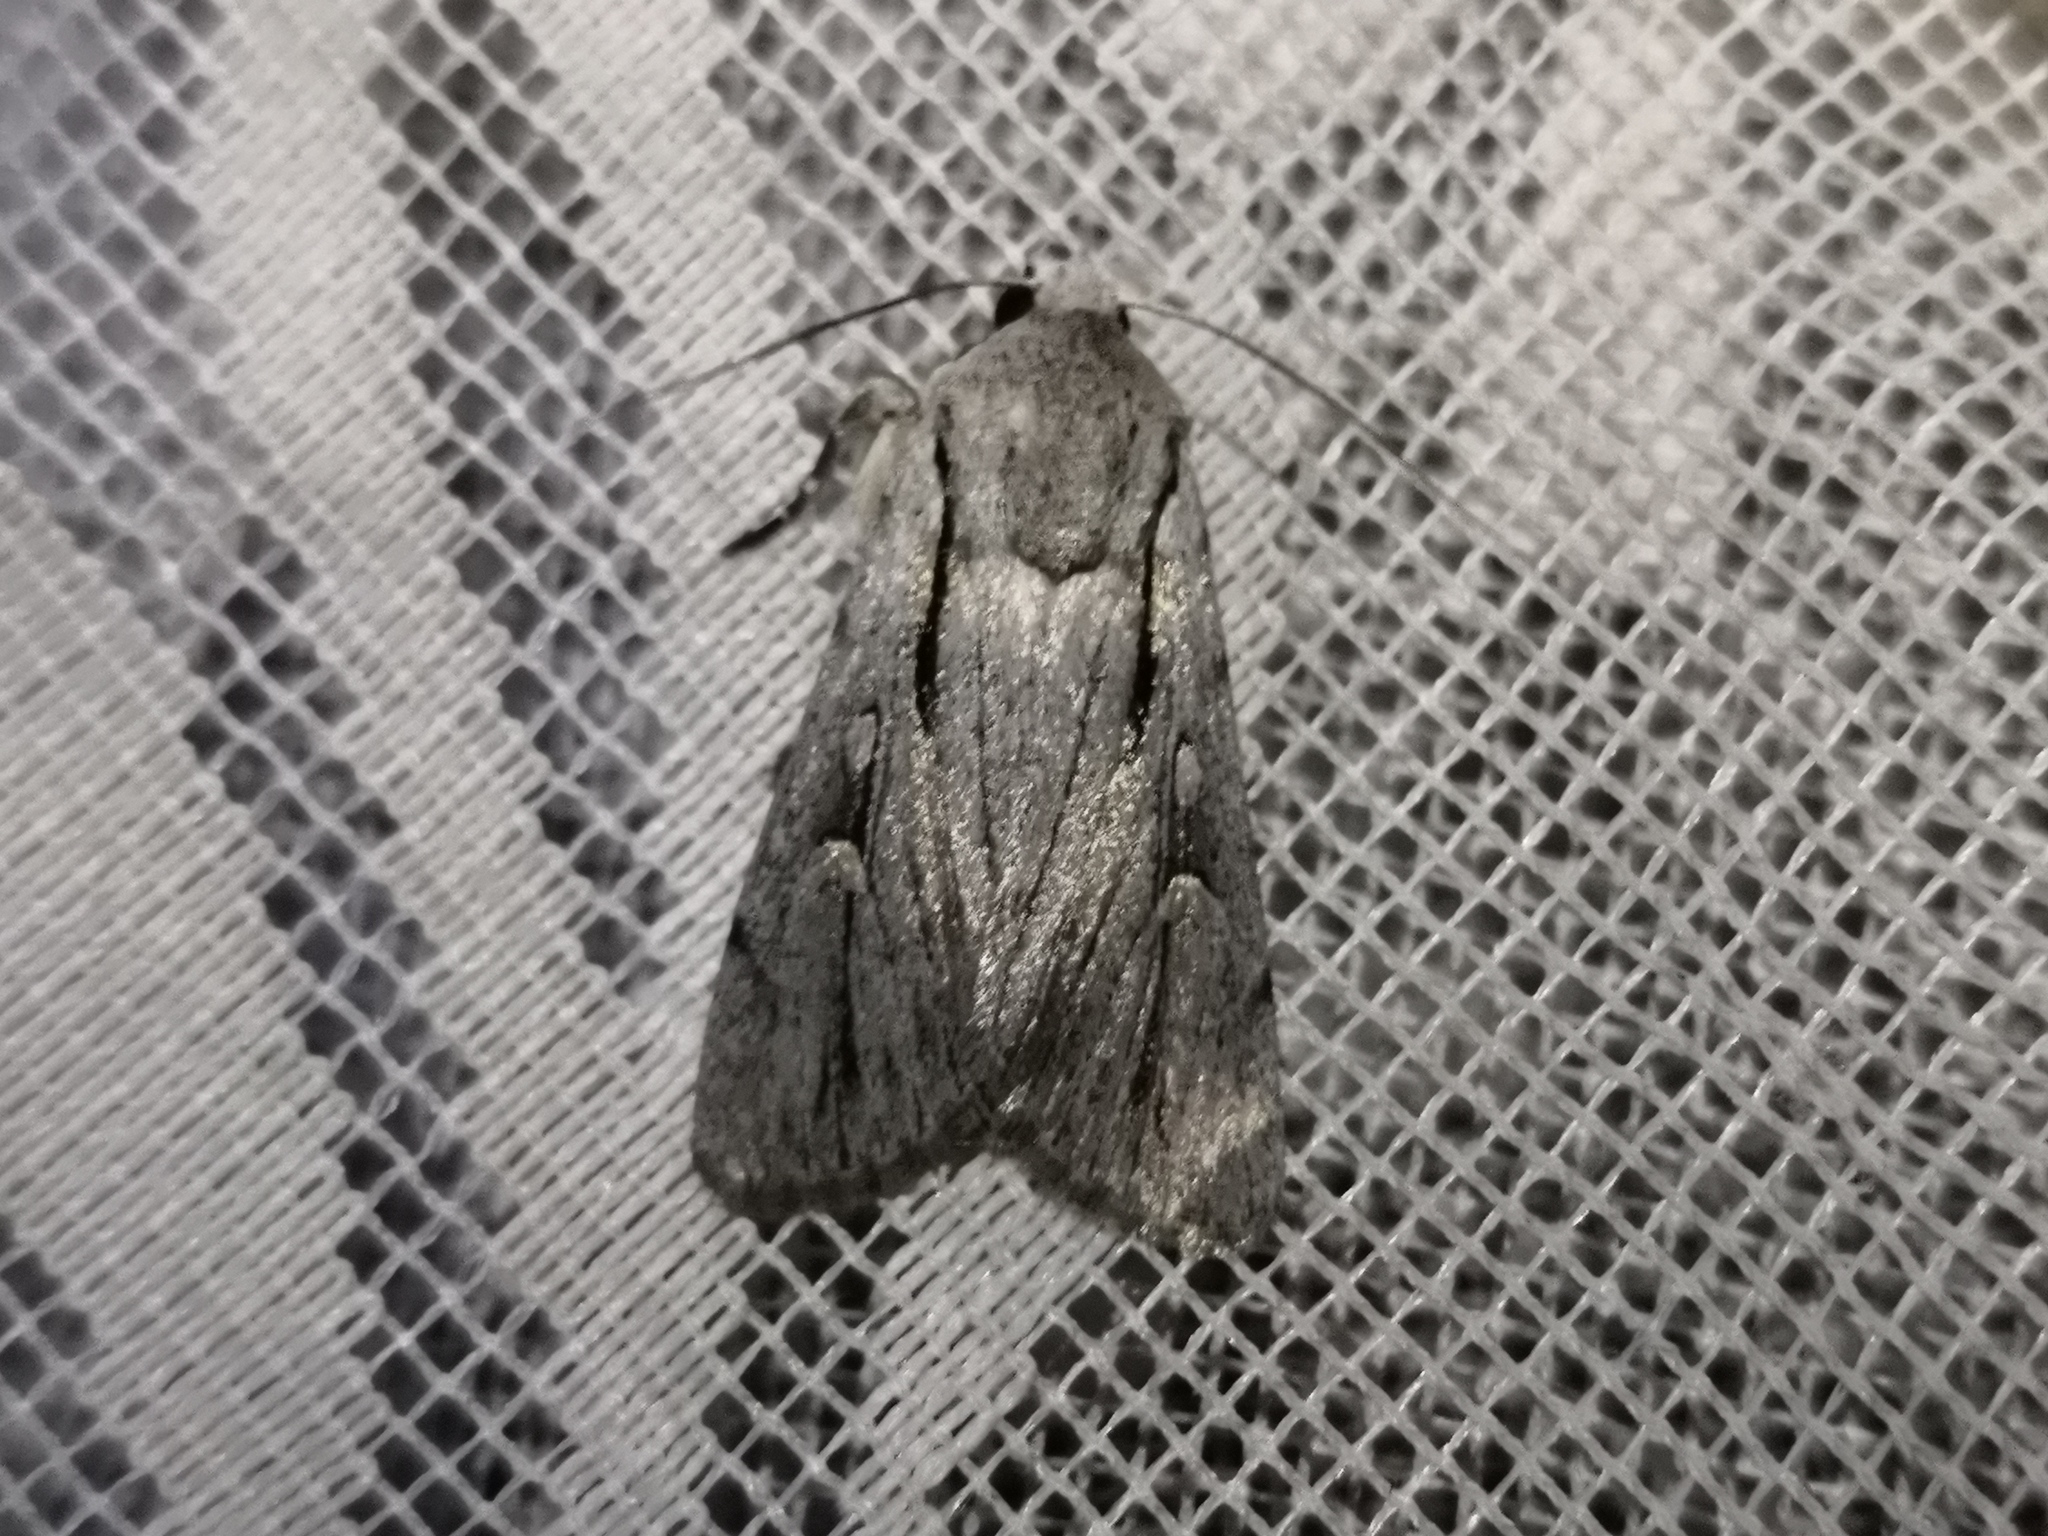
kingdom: Animalia
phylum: Arthropoda
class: Insecta
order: Lepidoptera
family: Noctuidae
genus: Dichagyris
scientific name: Dichagyris candelisequa
